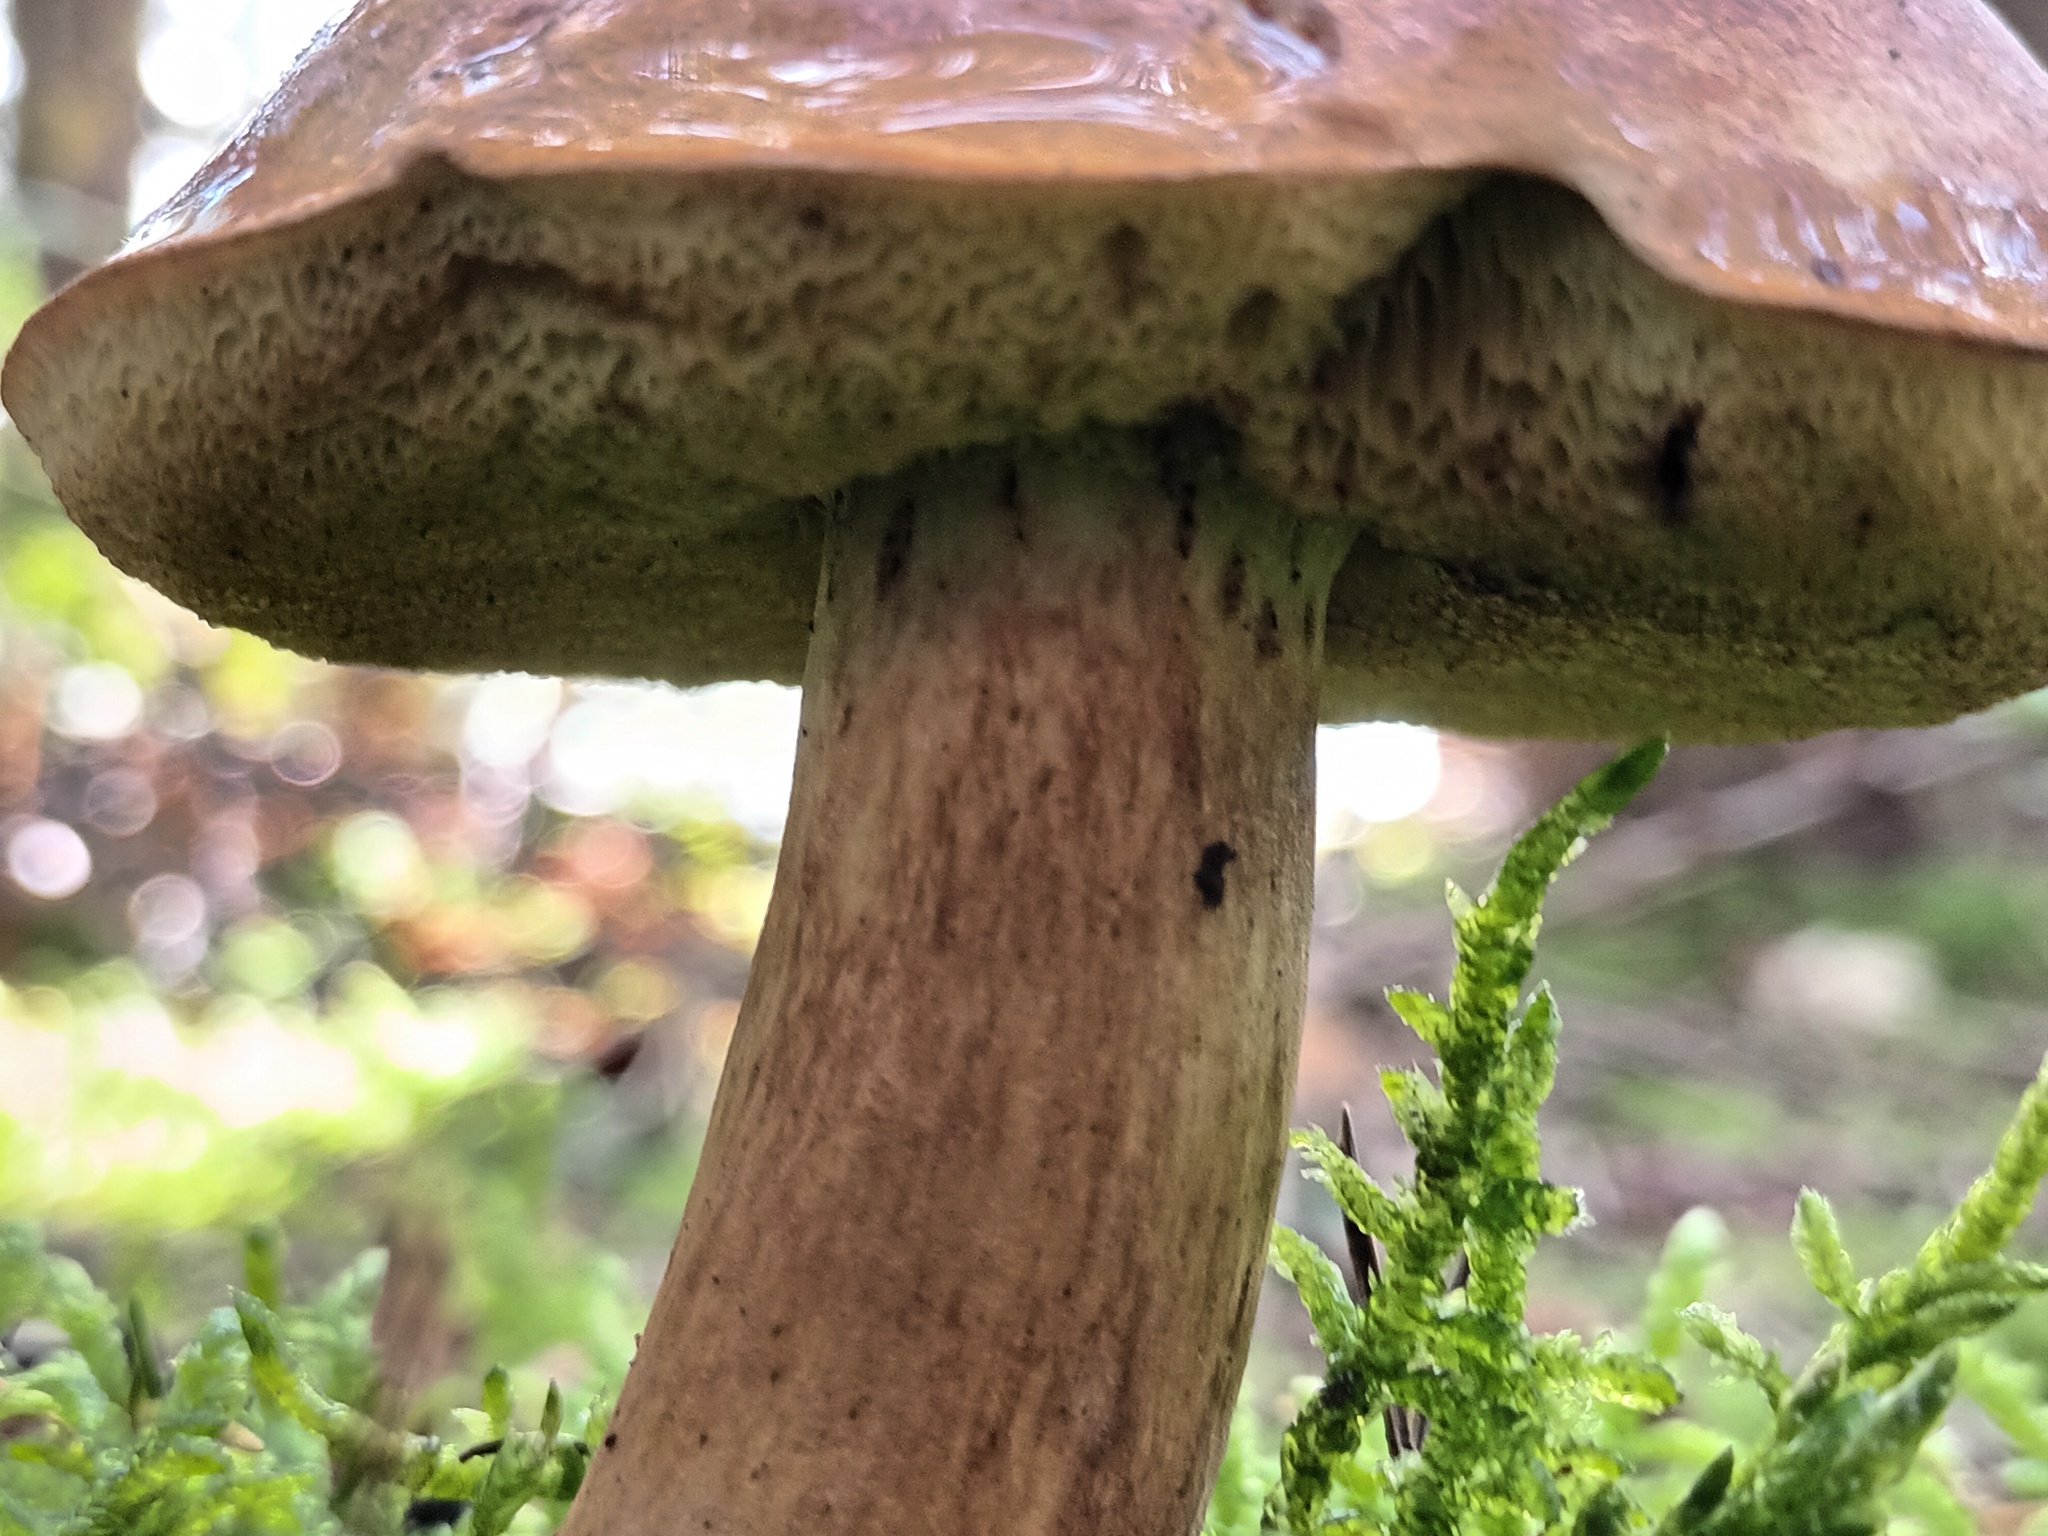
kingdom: Fungi
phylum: Basidiomycota
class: Agaricomycetes
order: Boletales
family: Boletaceae
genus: Imleria
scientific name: Imleria badia
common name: Bay bolete
